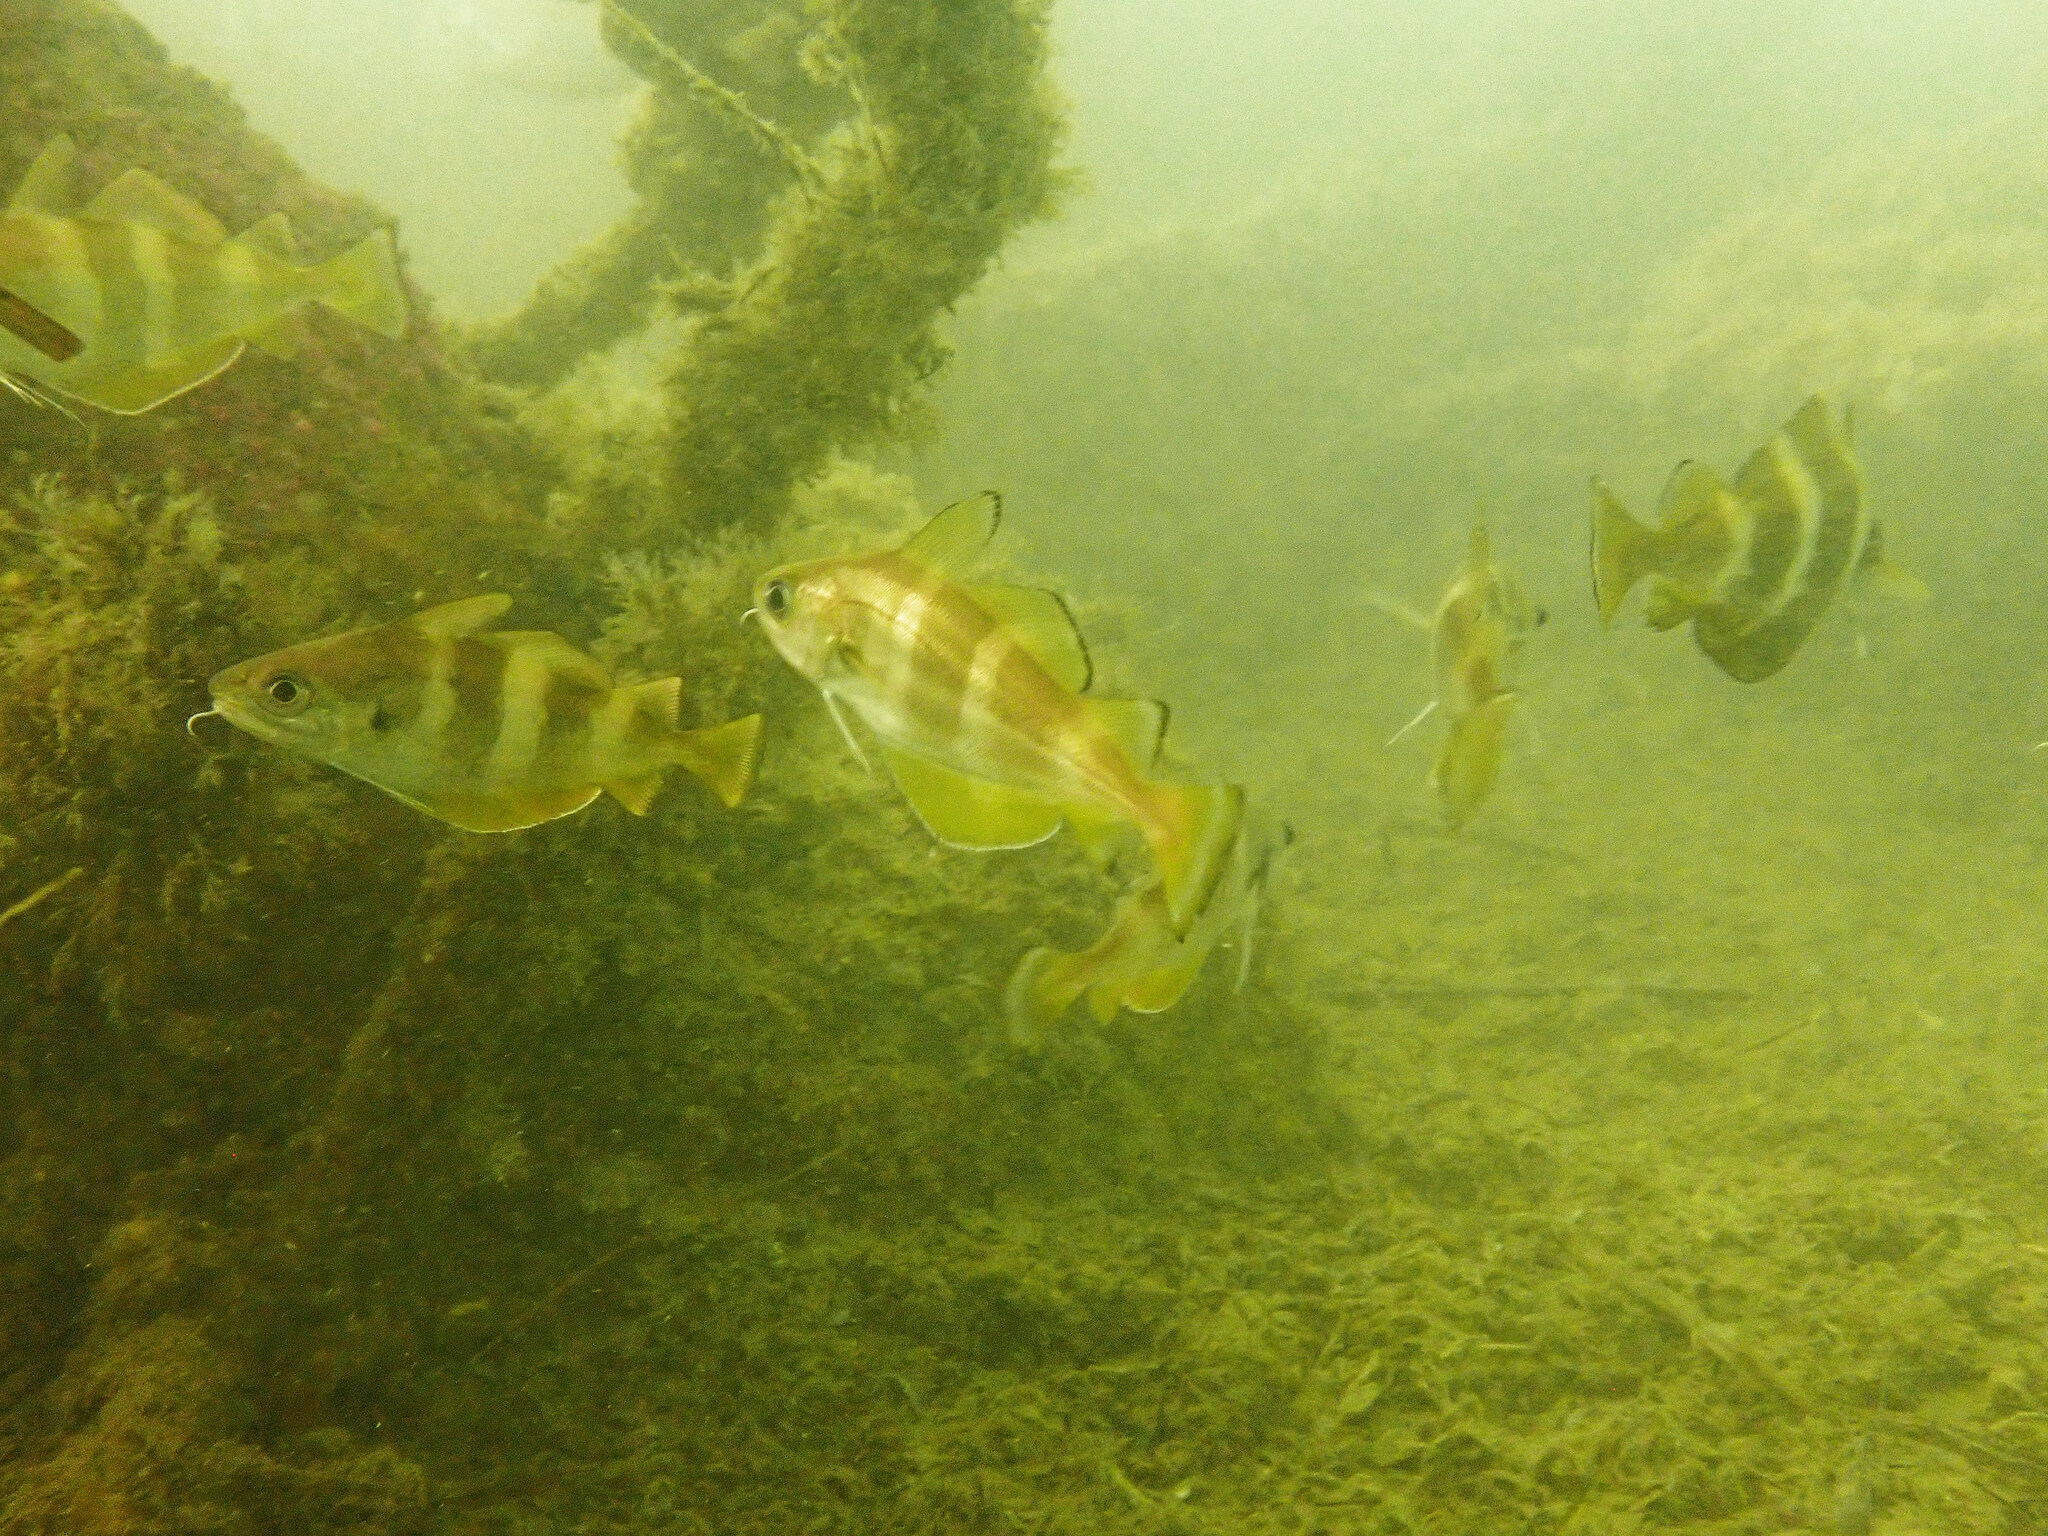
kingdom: Animalia
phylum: Chordata
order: Gadiformes
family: Gadidae
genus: Trisopterus
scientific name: Trisopterus luscus
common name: Bib
